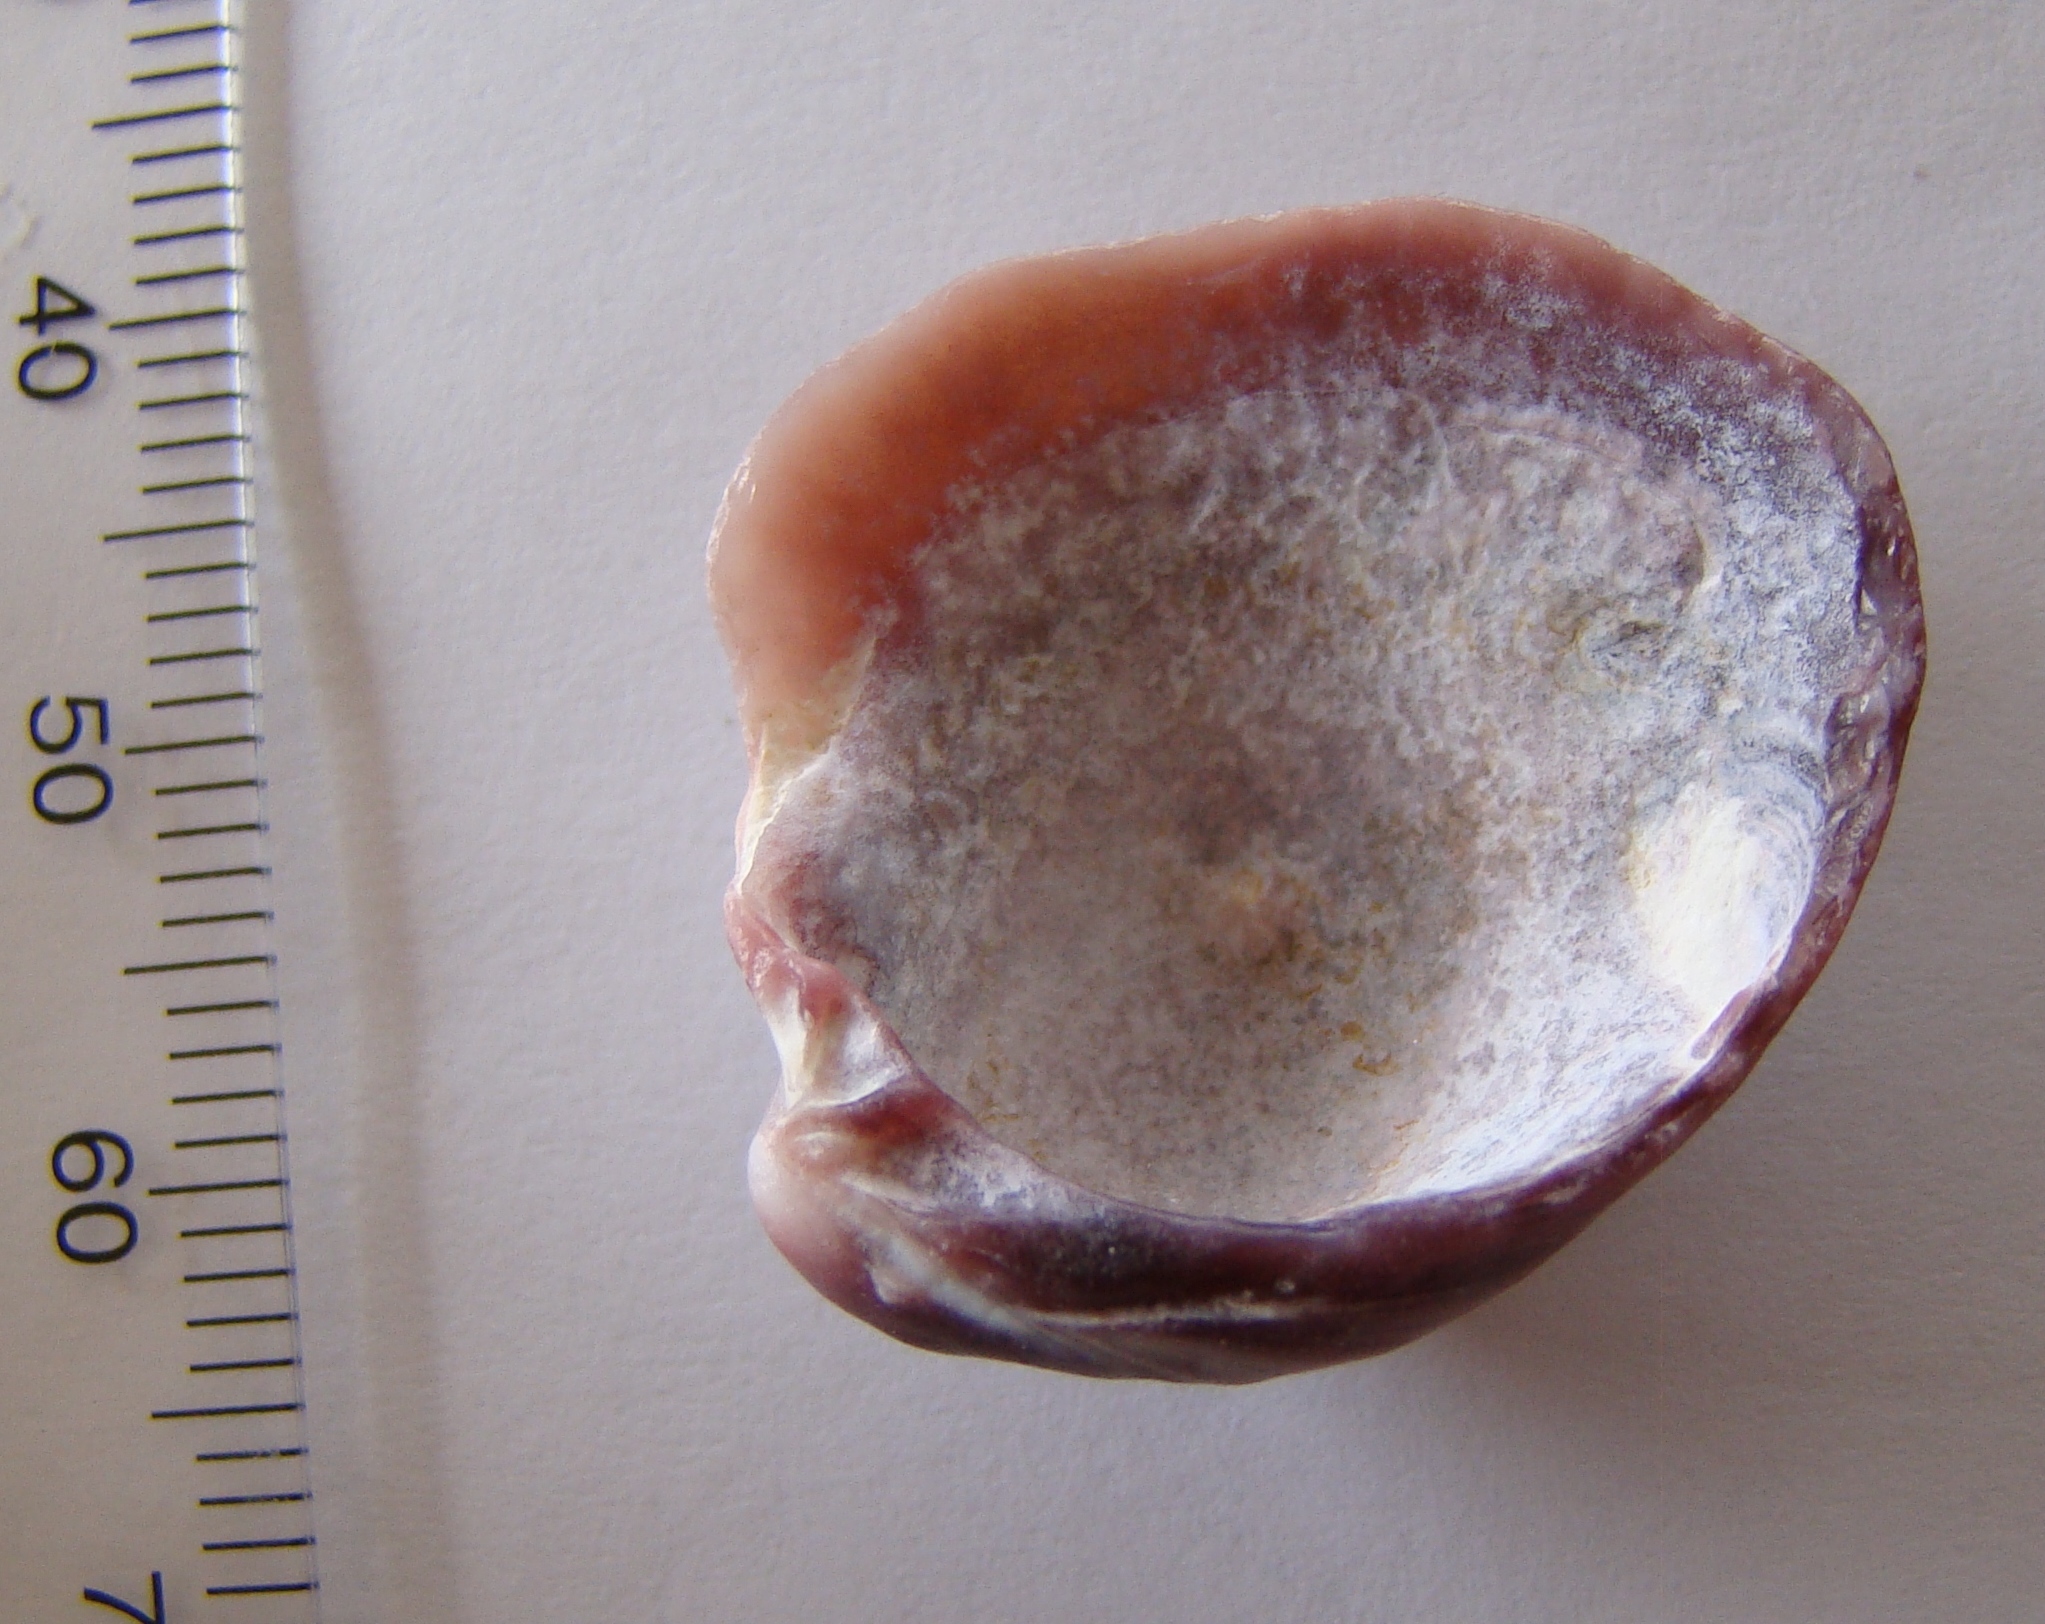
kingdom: Animalia
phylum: Mollusca
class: Bivalvia
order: Venerida
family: Veneridae
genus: Austrovenus
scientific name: Austrovenus stutchburyi
